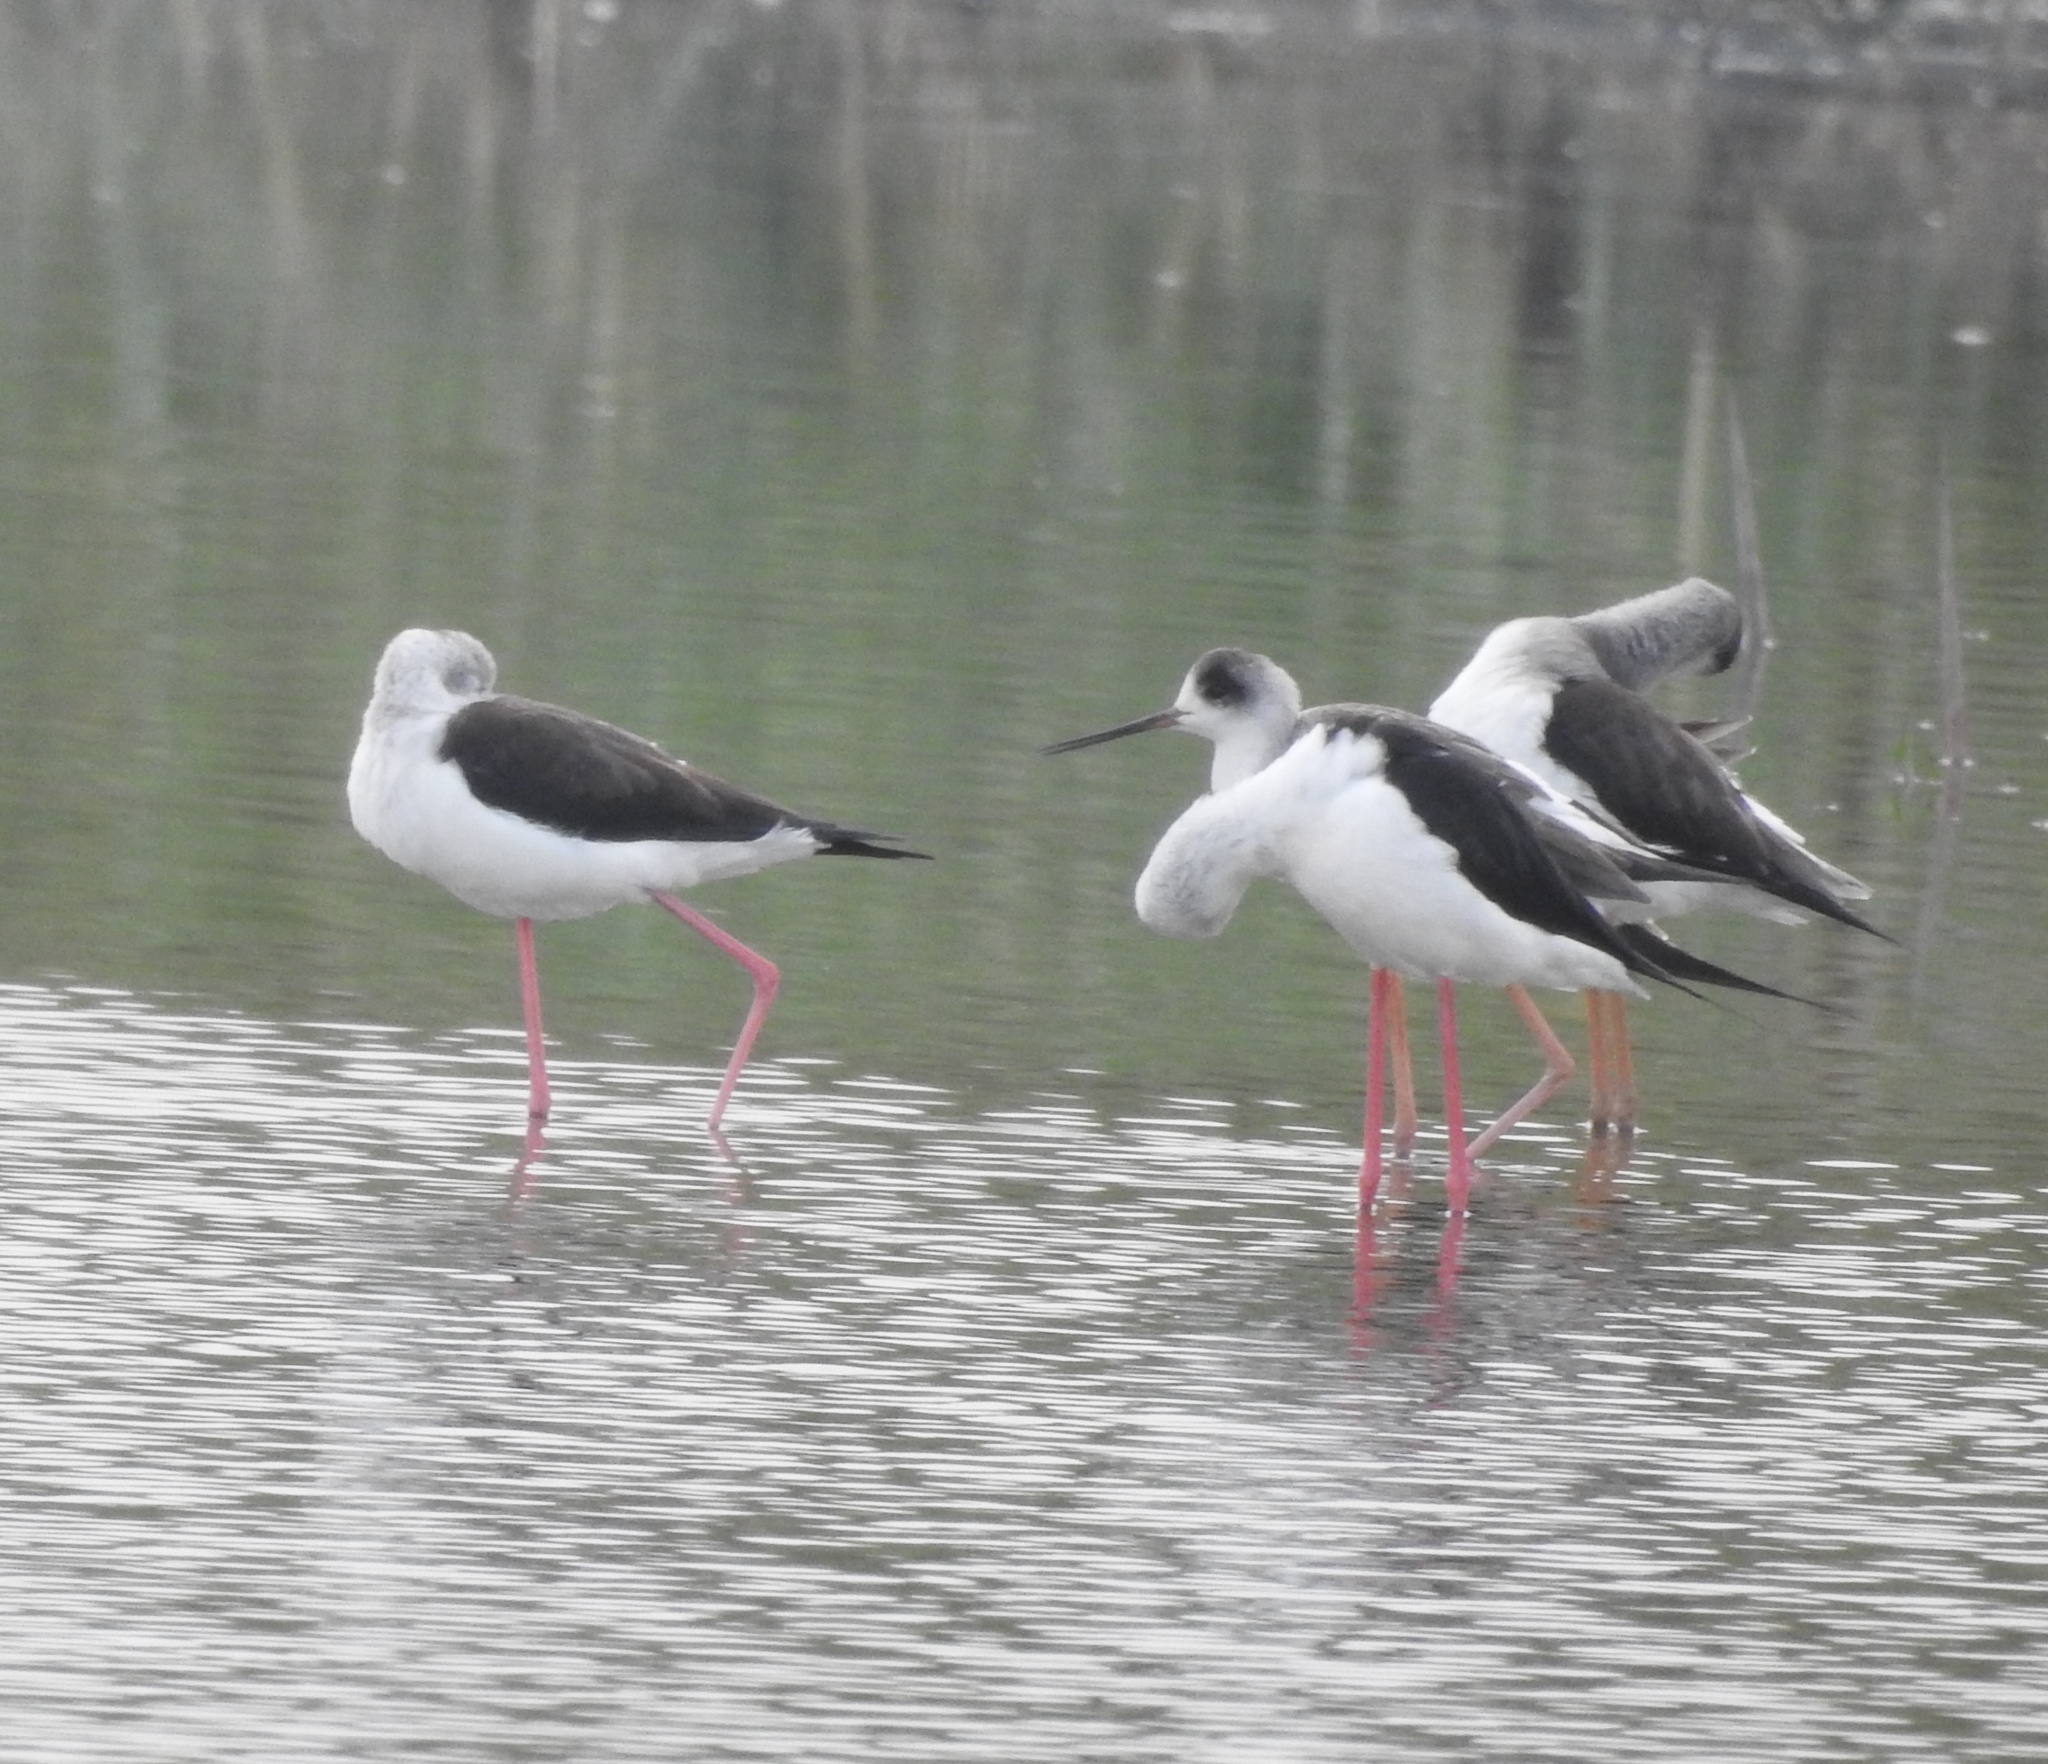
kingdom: Animalia
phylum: Chordata
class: Aves
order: Charadriiformes
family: Recurvirostridae
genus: Himantopus
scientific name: Himantopus himantopus
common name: Black-winged stilt
